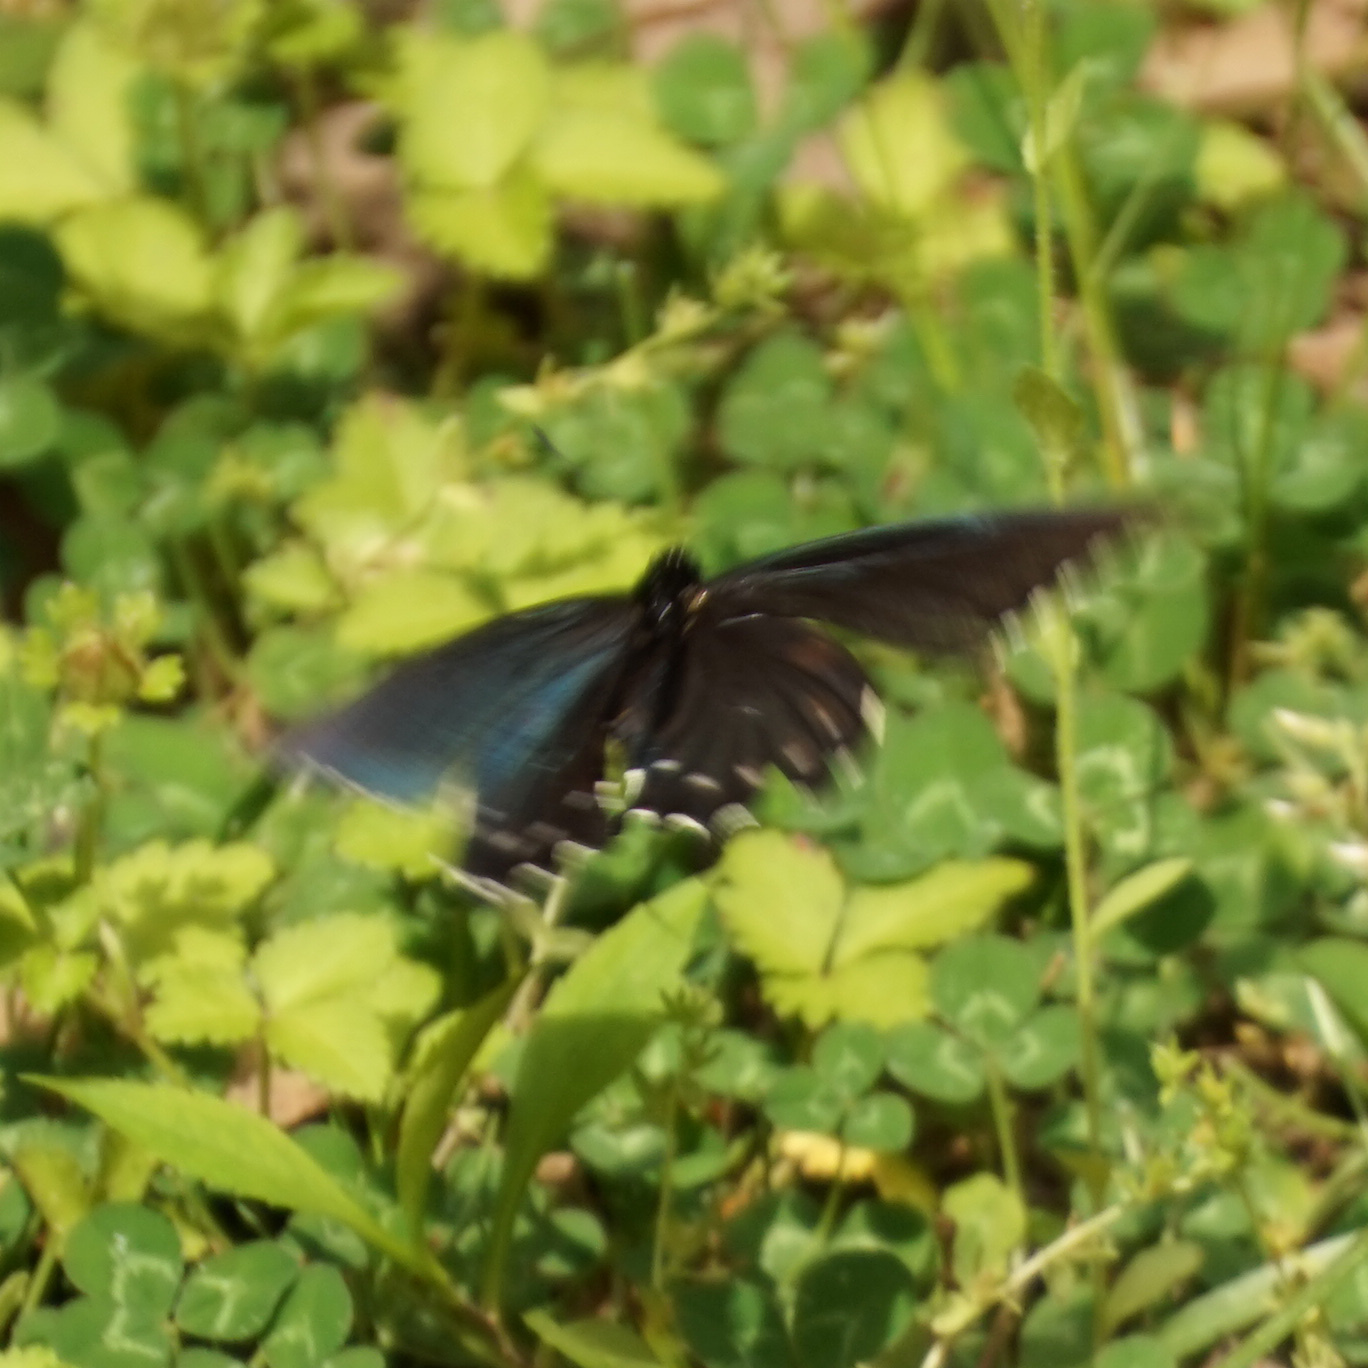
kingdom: Animalia
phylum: Arthropoda
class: Insecta
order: Lepidoptera
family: Papilionidae
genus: Battus
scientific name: Battus philenor
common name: Pipevine swallowtail
